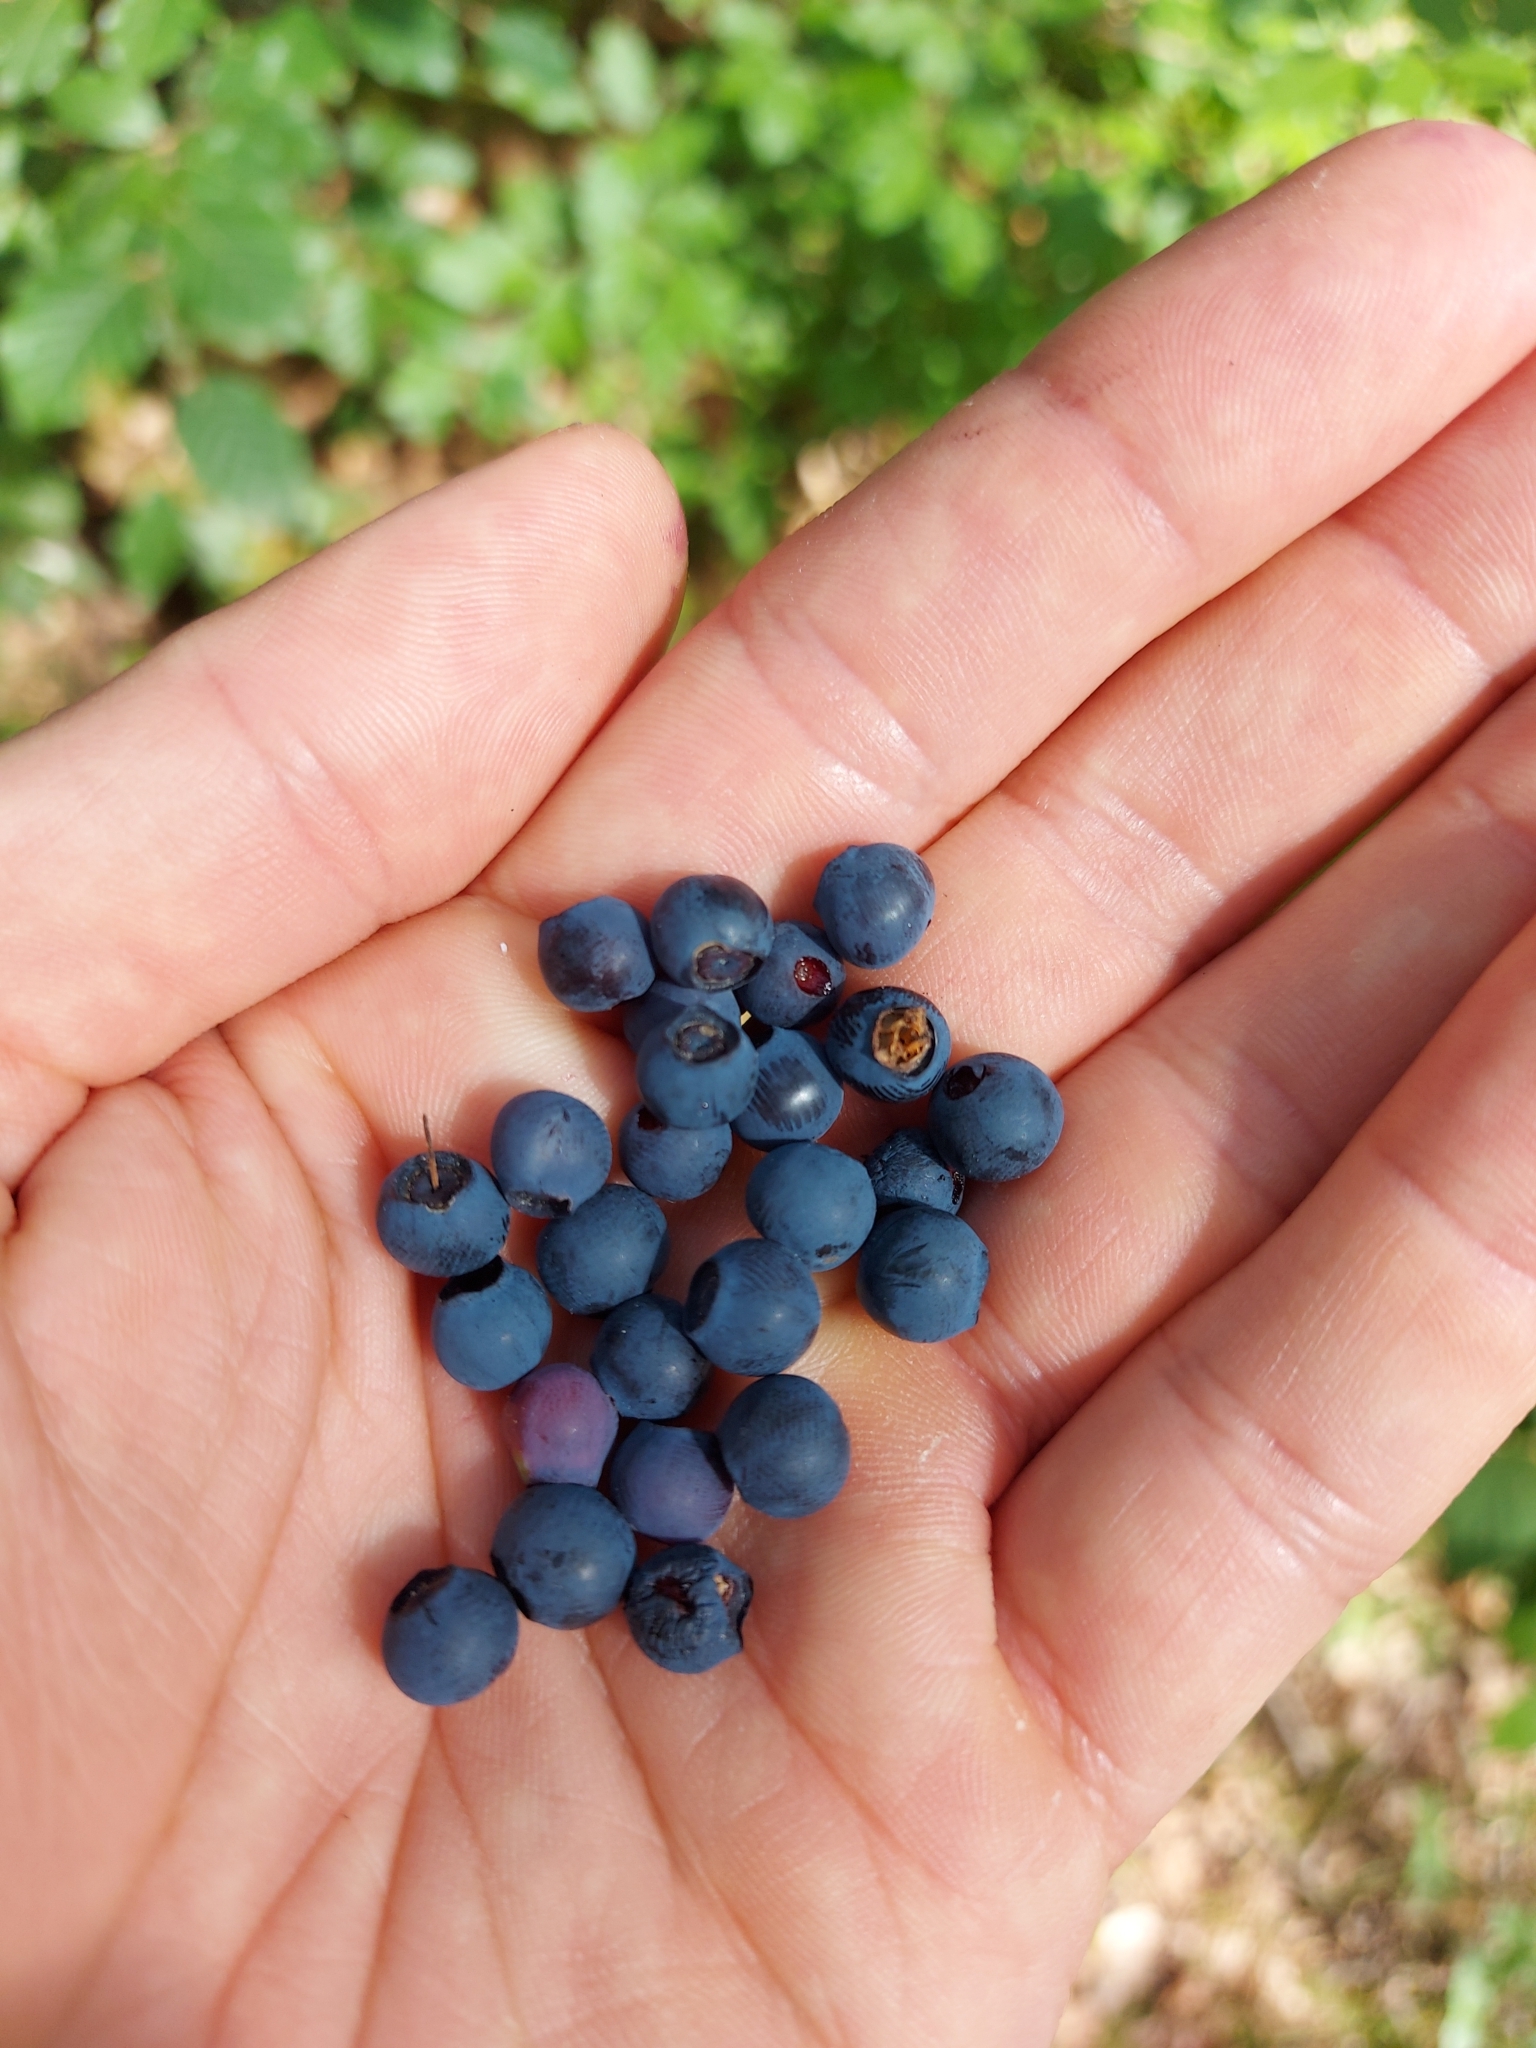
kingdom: Plantae
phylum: Tracheophyta
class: Magnoliopsida
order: Ericales
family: Ericaceae
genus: Vaccinium
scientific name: Vaccinium myrtillus
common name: Bilberry
